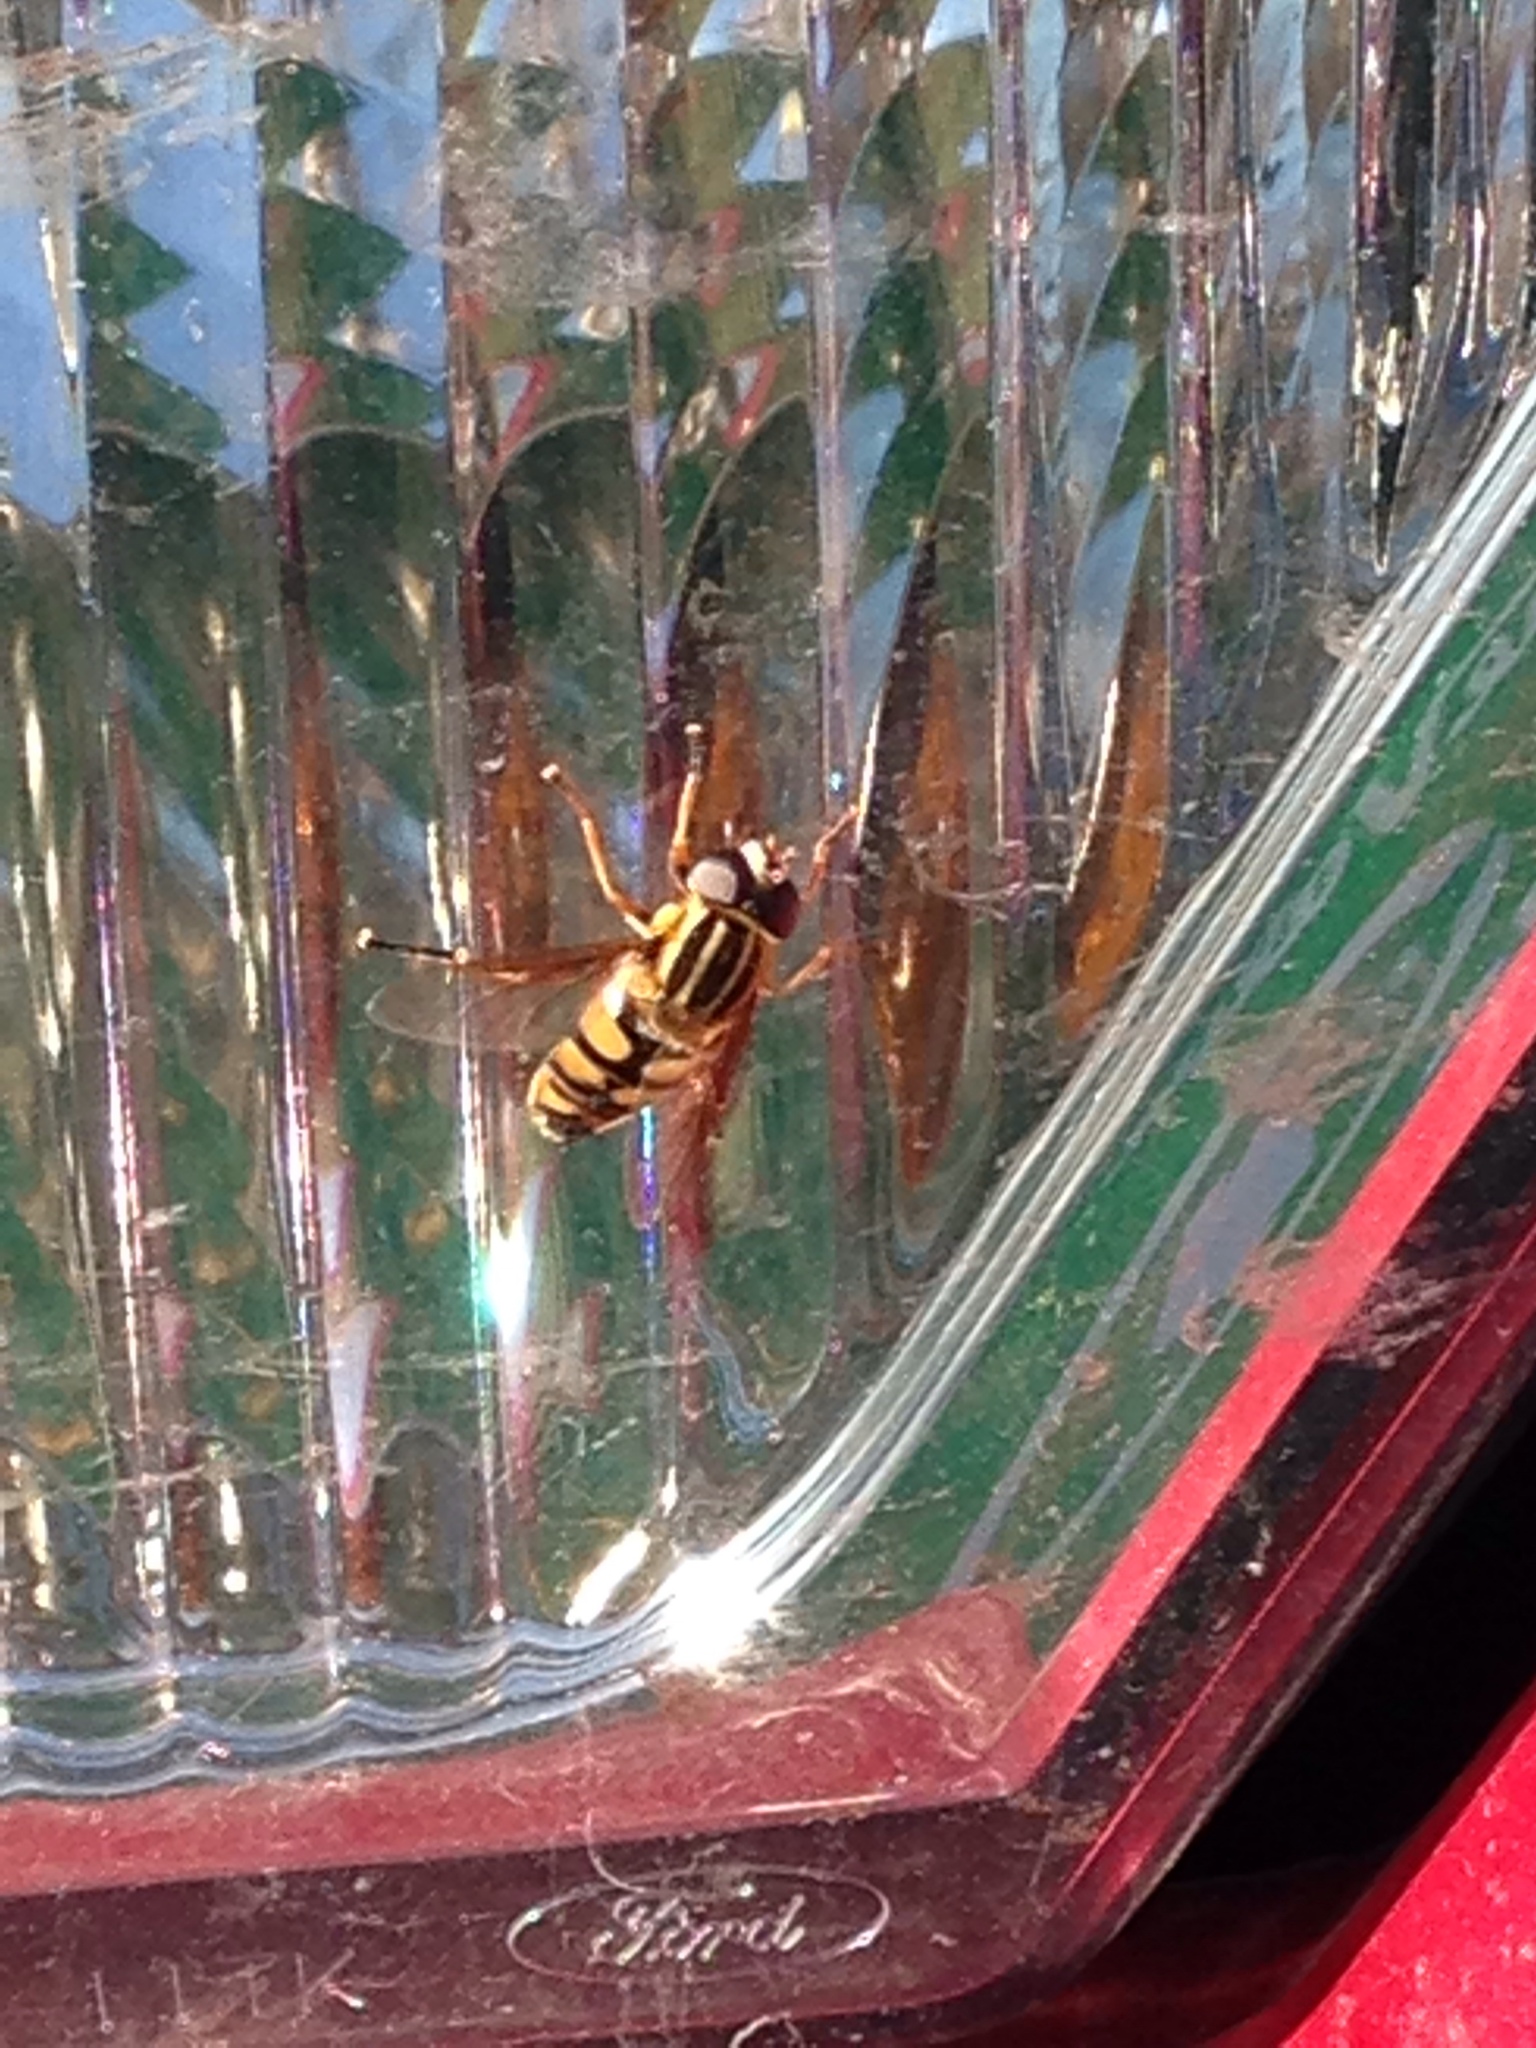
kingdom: Animalia
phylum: Arthropoda
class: Insecta
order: Diptera
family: Syrphidae
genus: Helophilus
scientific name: Helophilus fasciatus
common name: Narrow-headed marsh fly
